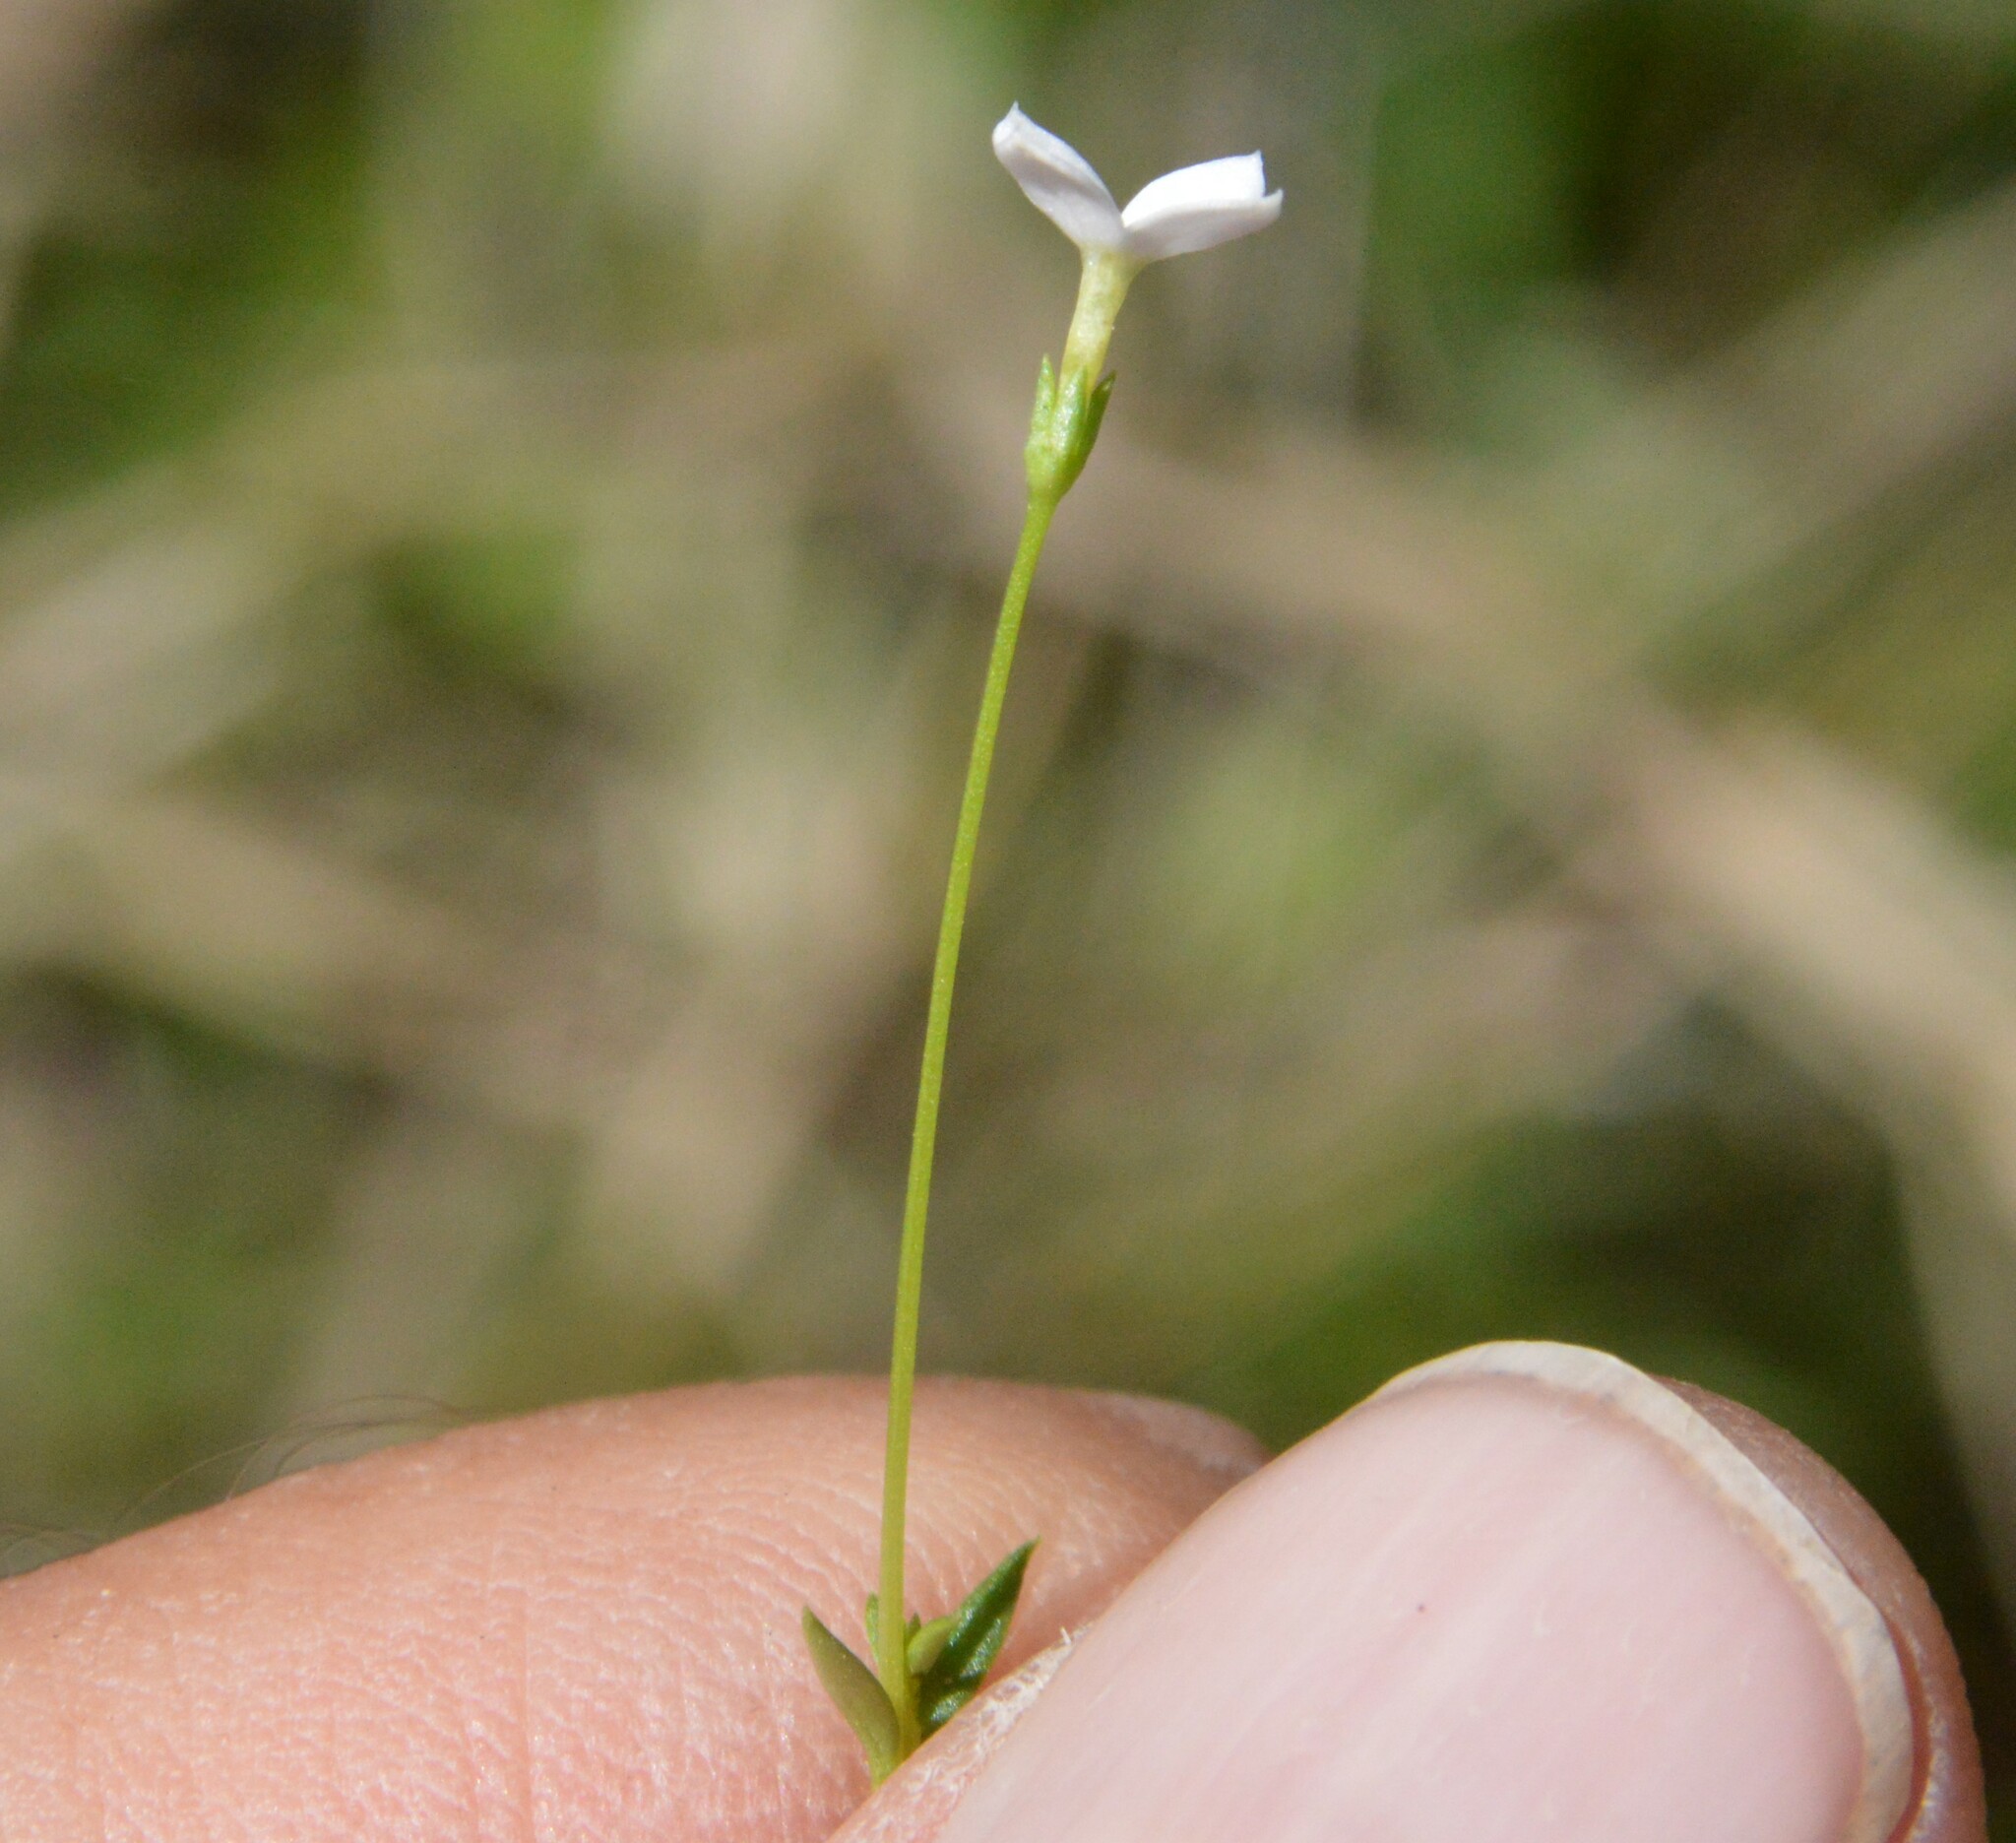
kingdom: Plantae
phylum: Tracheophyta
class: Magnoliopsida
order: Gentianales
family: Rubiaceae
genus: Houstonia
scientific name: Houstonia pusilla
